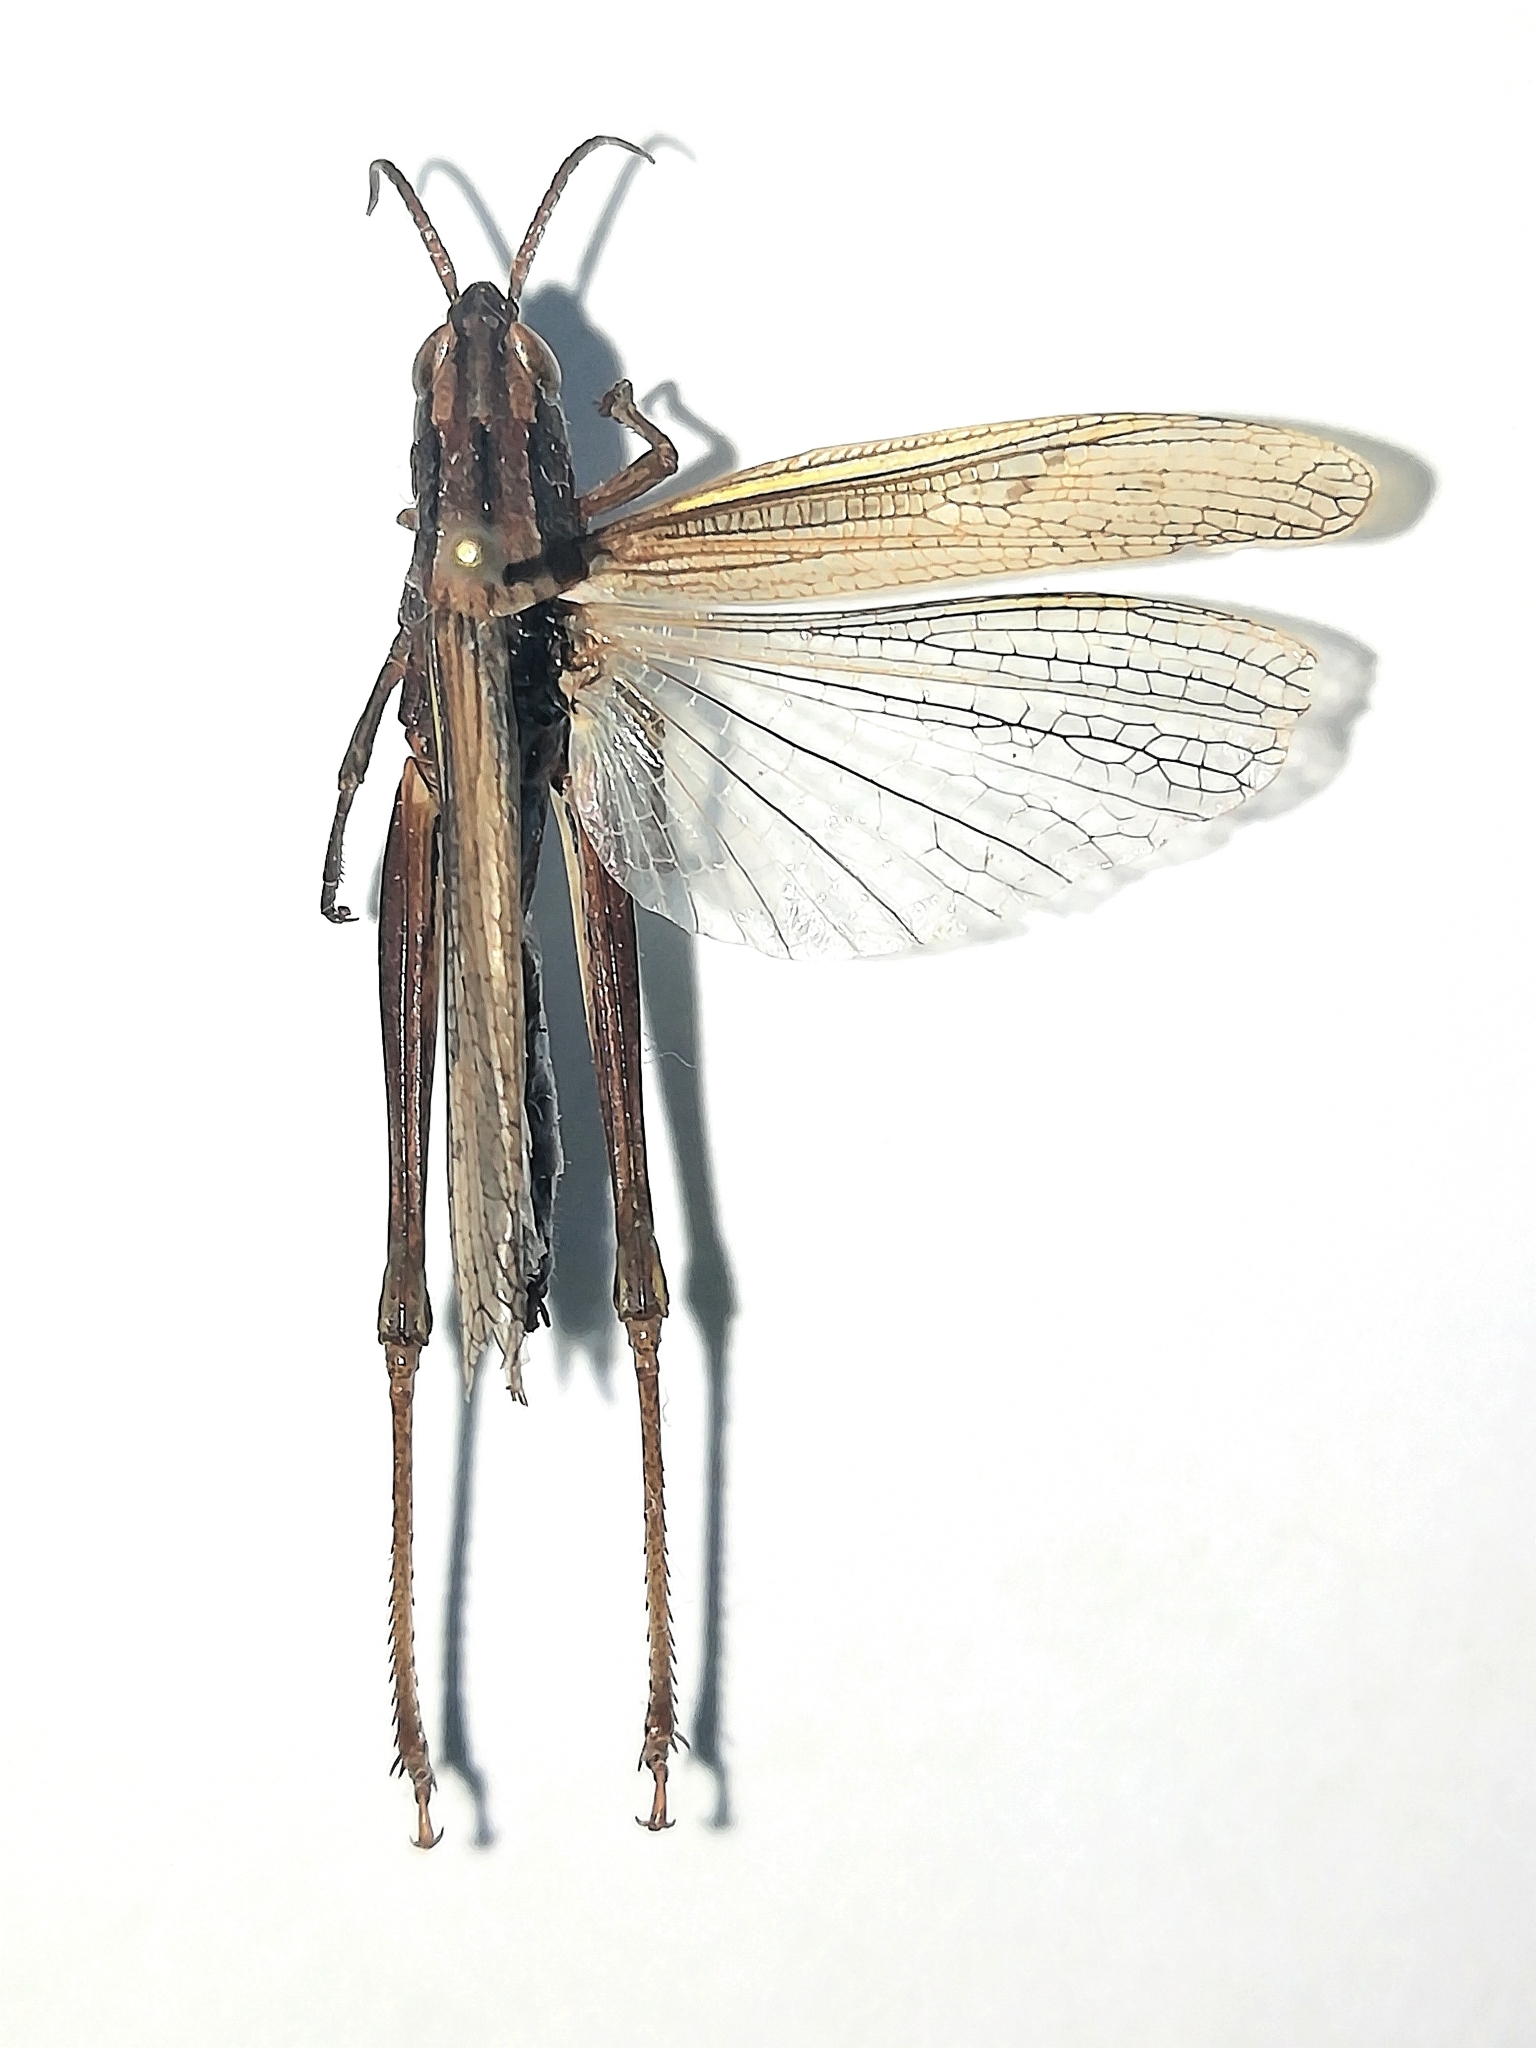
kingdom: Animalia
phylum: Arthropoda
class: Insecta
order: Orthoptera
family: Acrididae
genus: Chorthippus
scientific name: Chorthippus karelini
